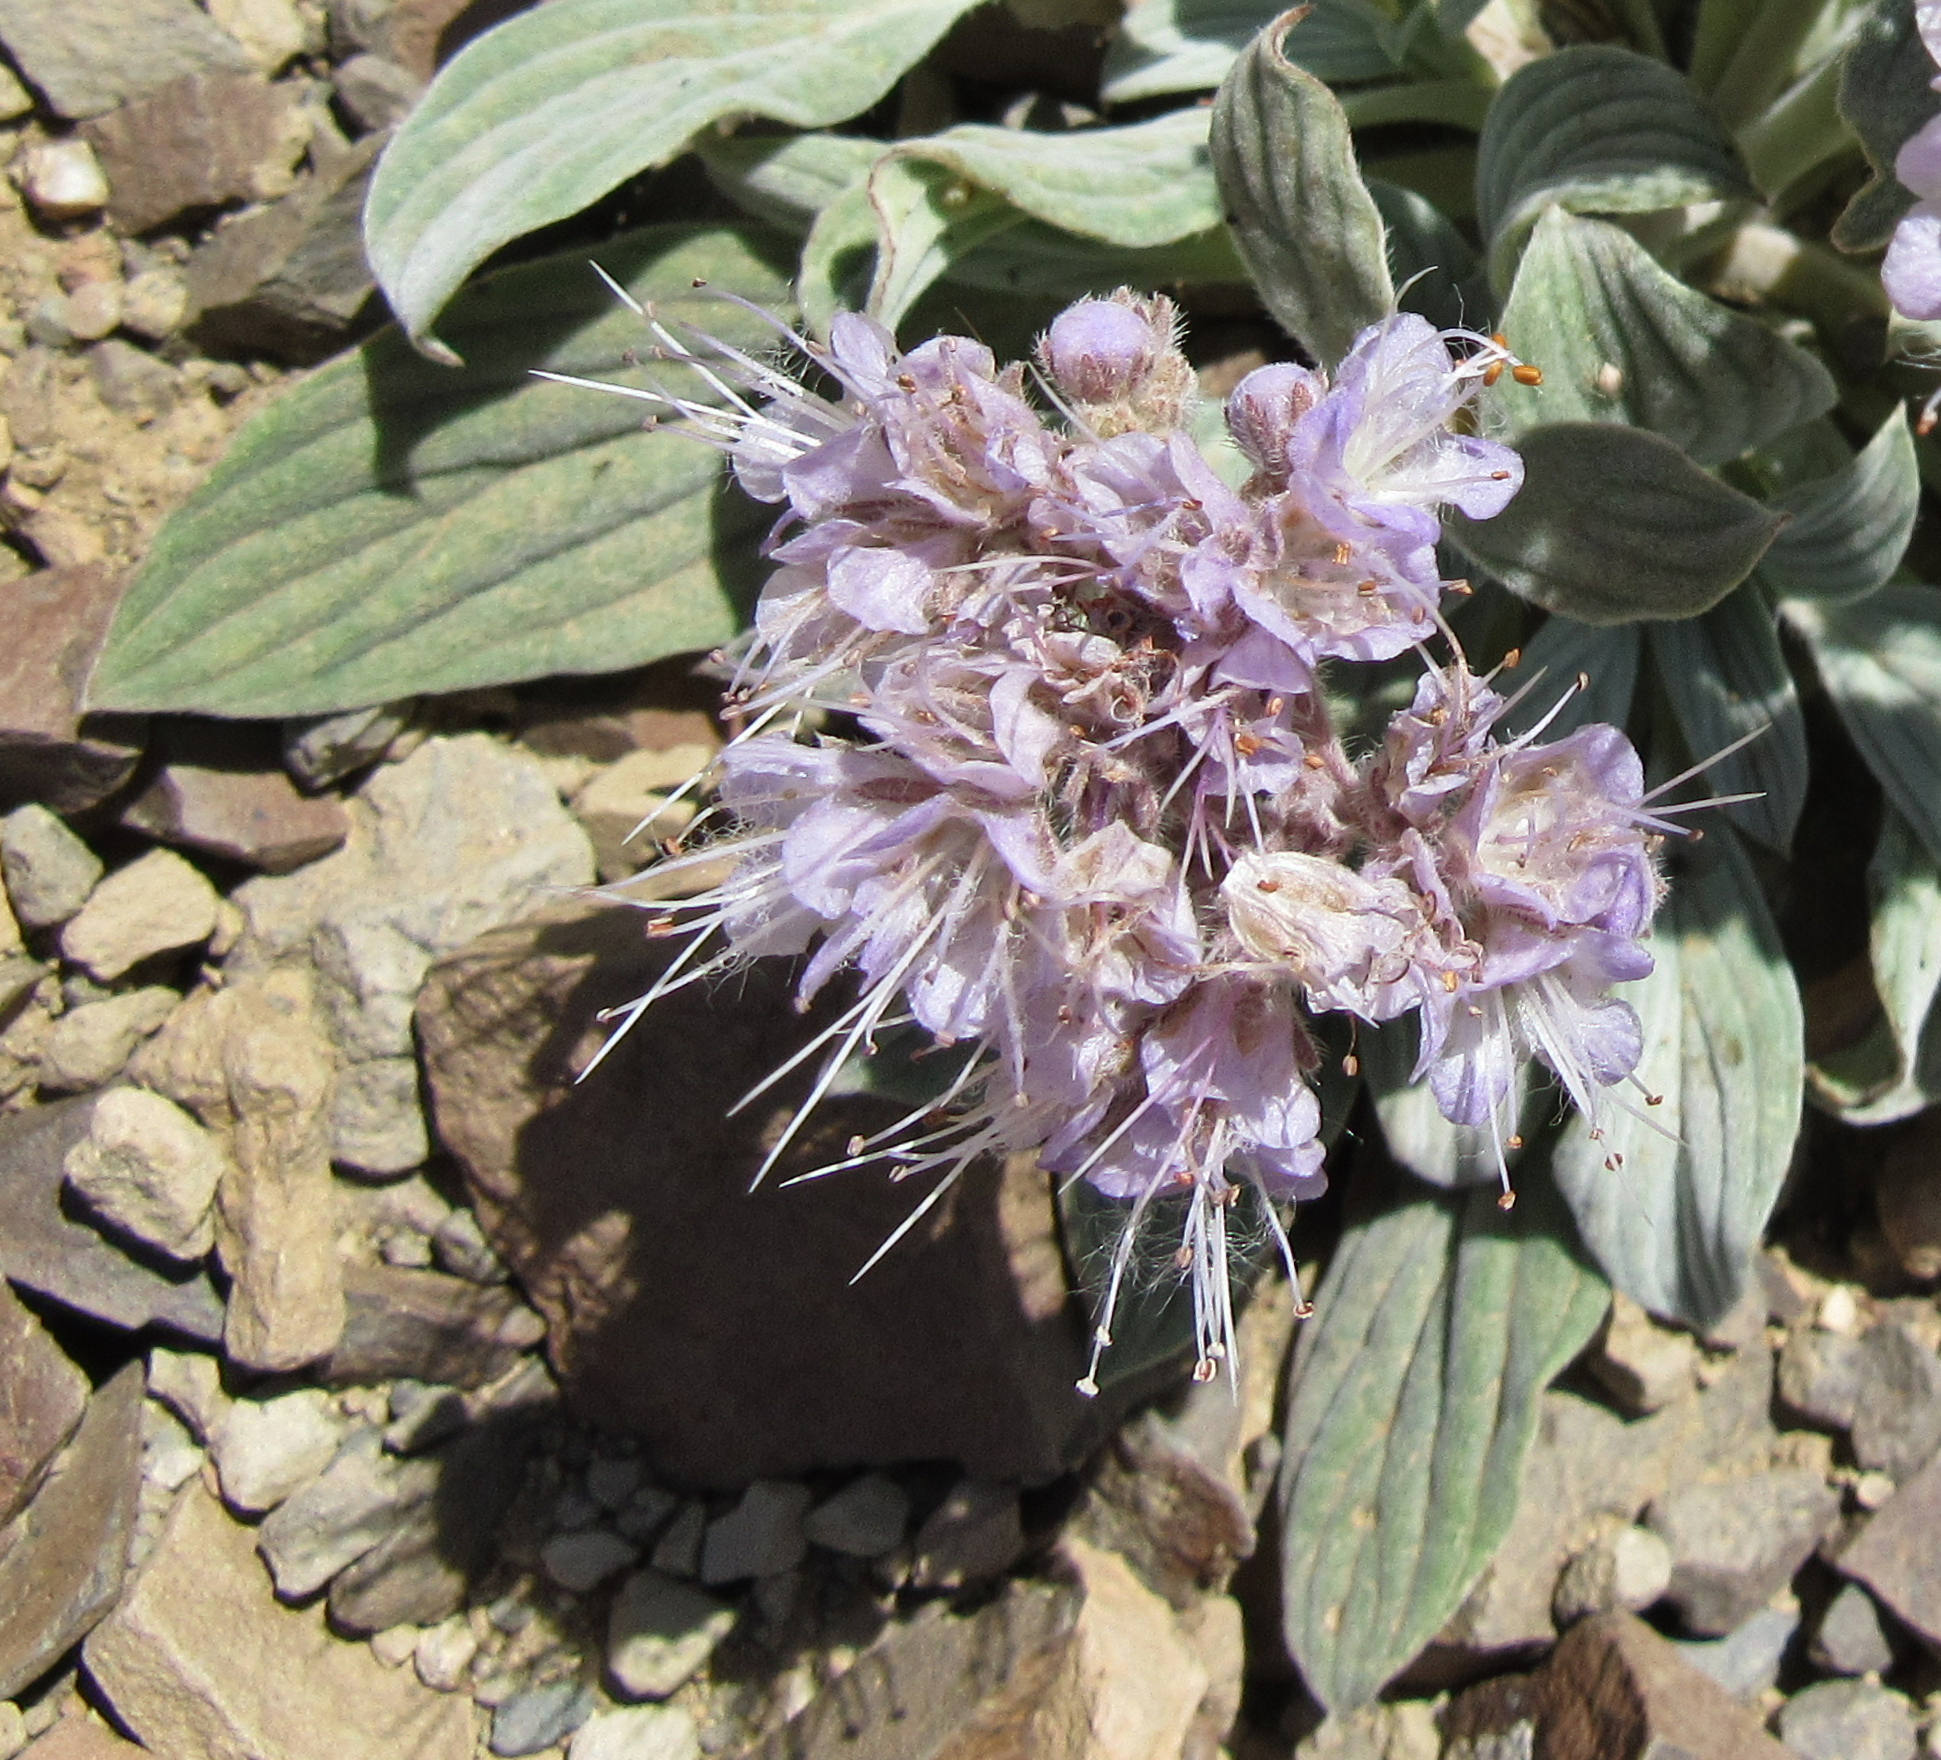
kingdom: Plantae
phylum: Tracheophyta
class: Magnoliopsida
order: Boraginales
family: Hydrophyllaceae
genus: Phacelia
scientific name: Phacelia hastata
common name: Silver-leaved phacelia
